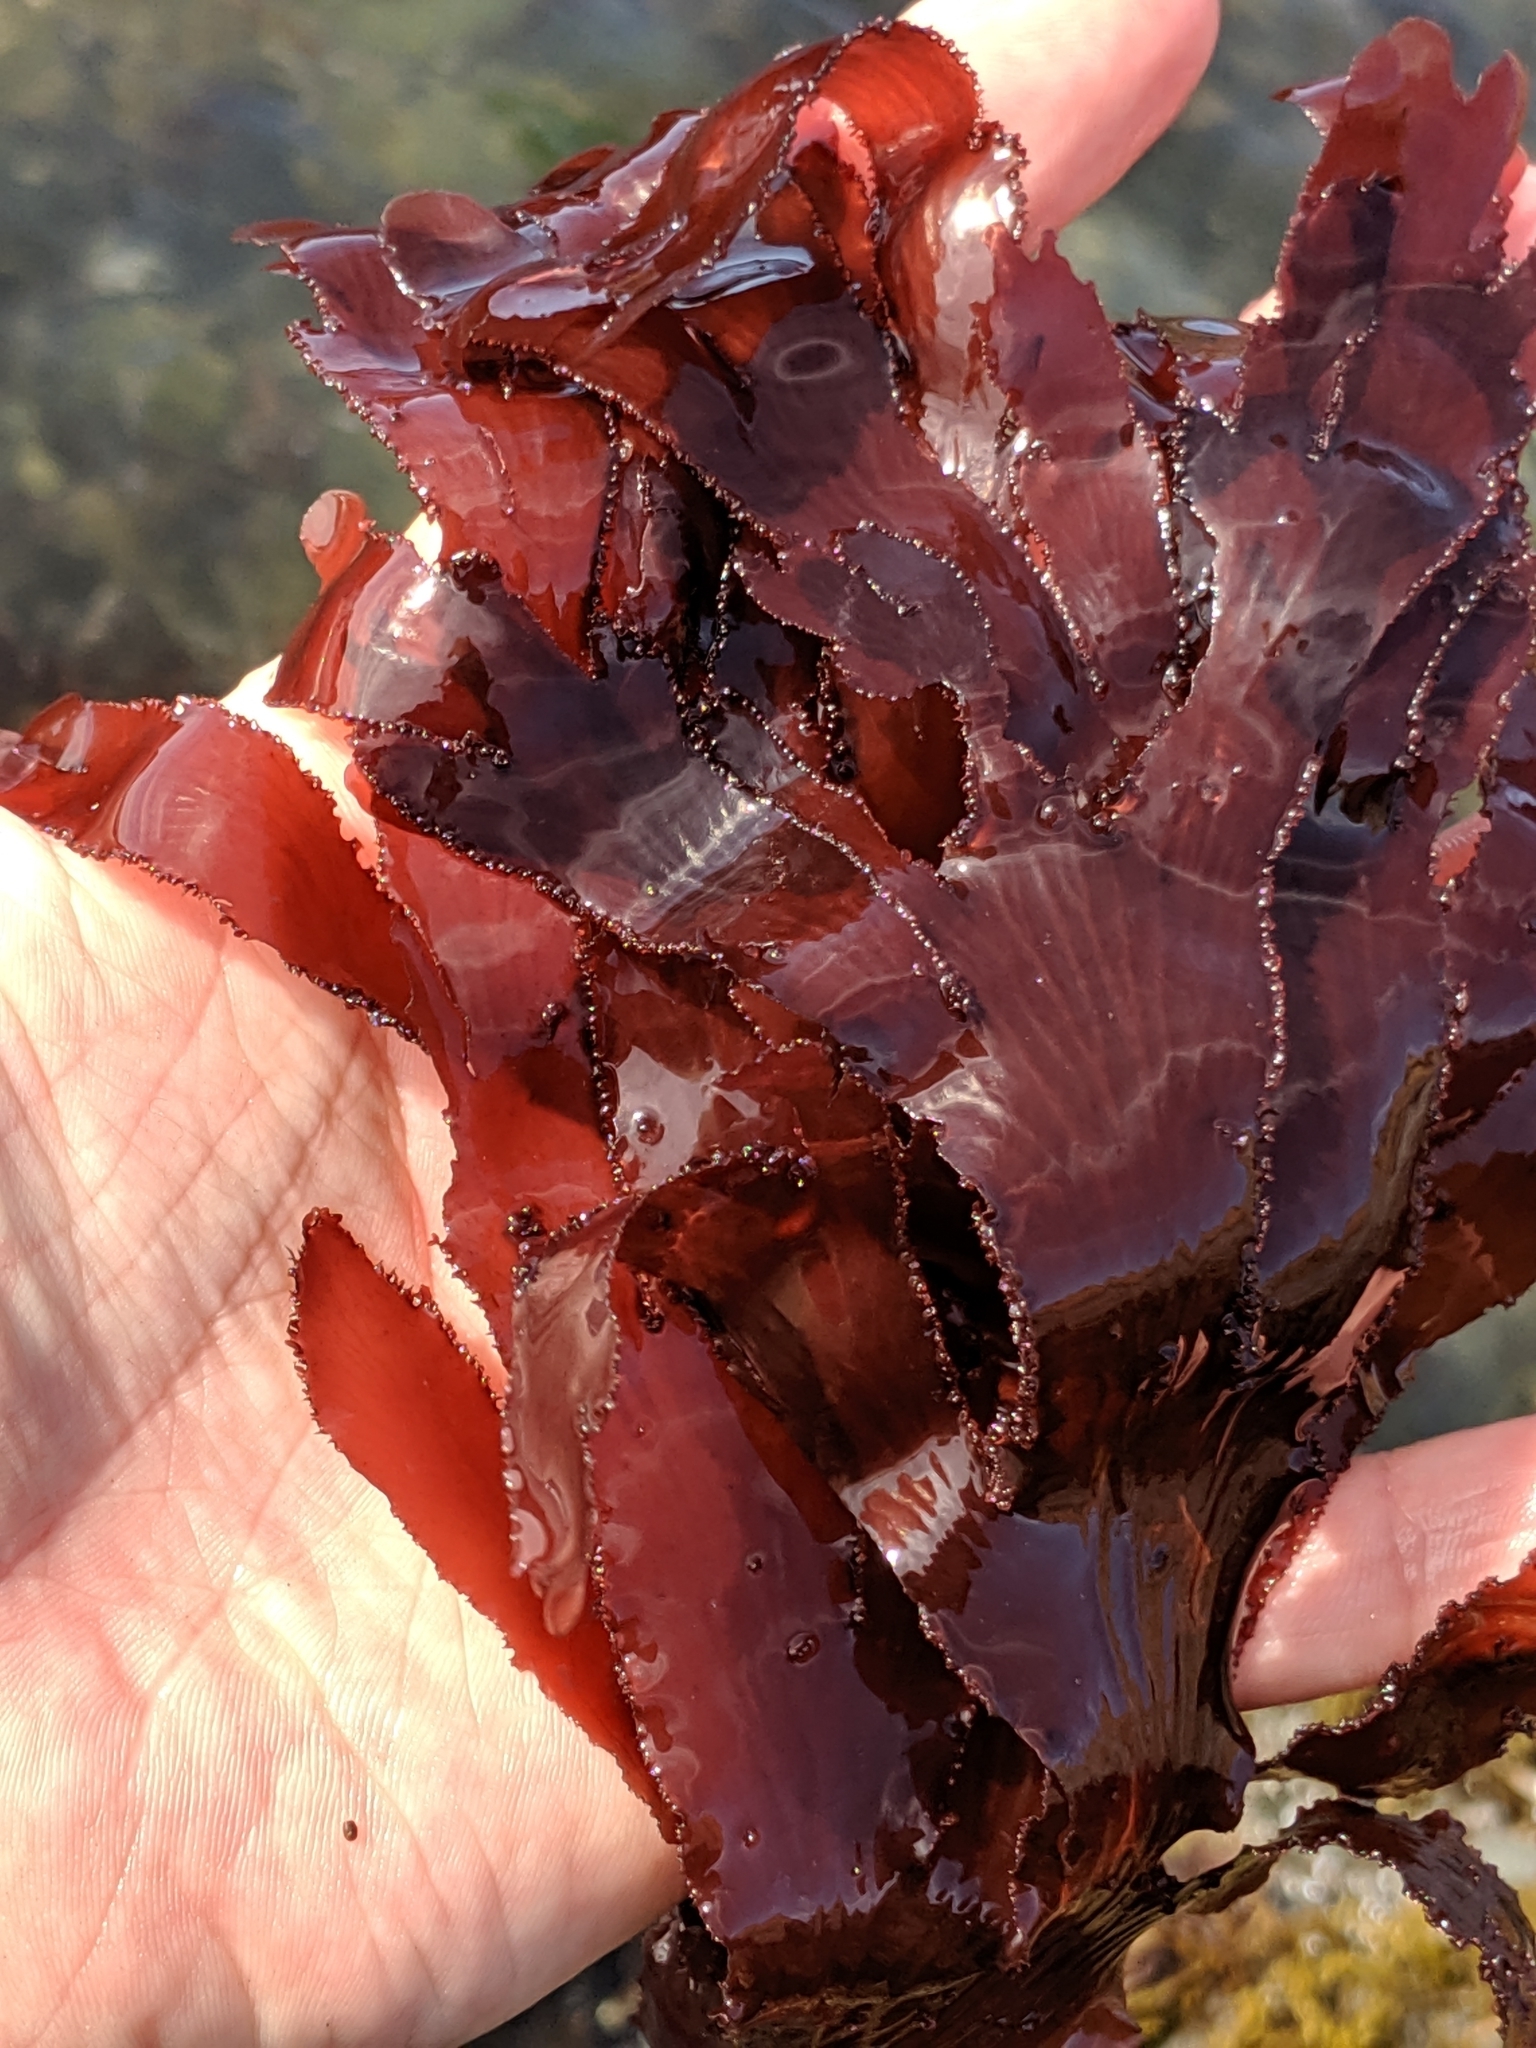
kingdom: Plantae
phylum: Rhodophyta
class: Florideophyceae
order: Ceramiales
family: Delesseriaceae
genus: Cryptopleura
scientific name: Cryptopleura ruprechtiana
